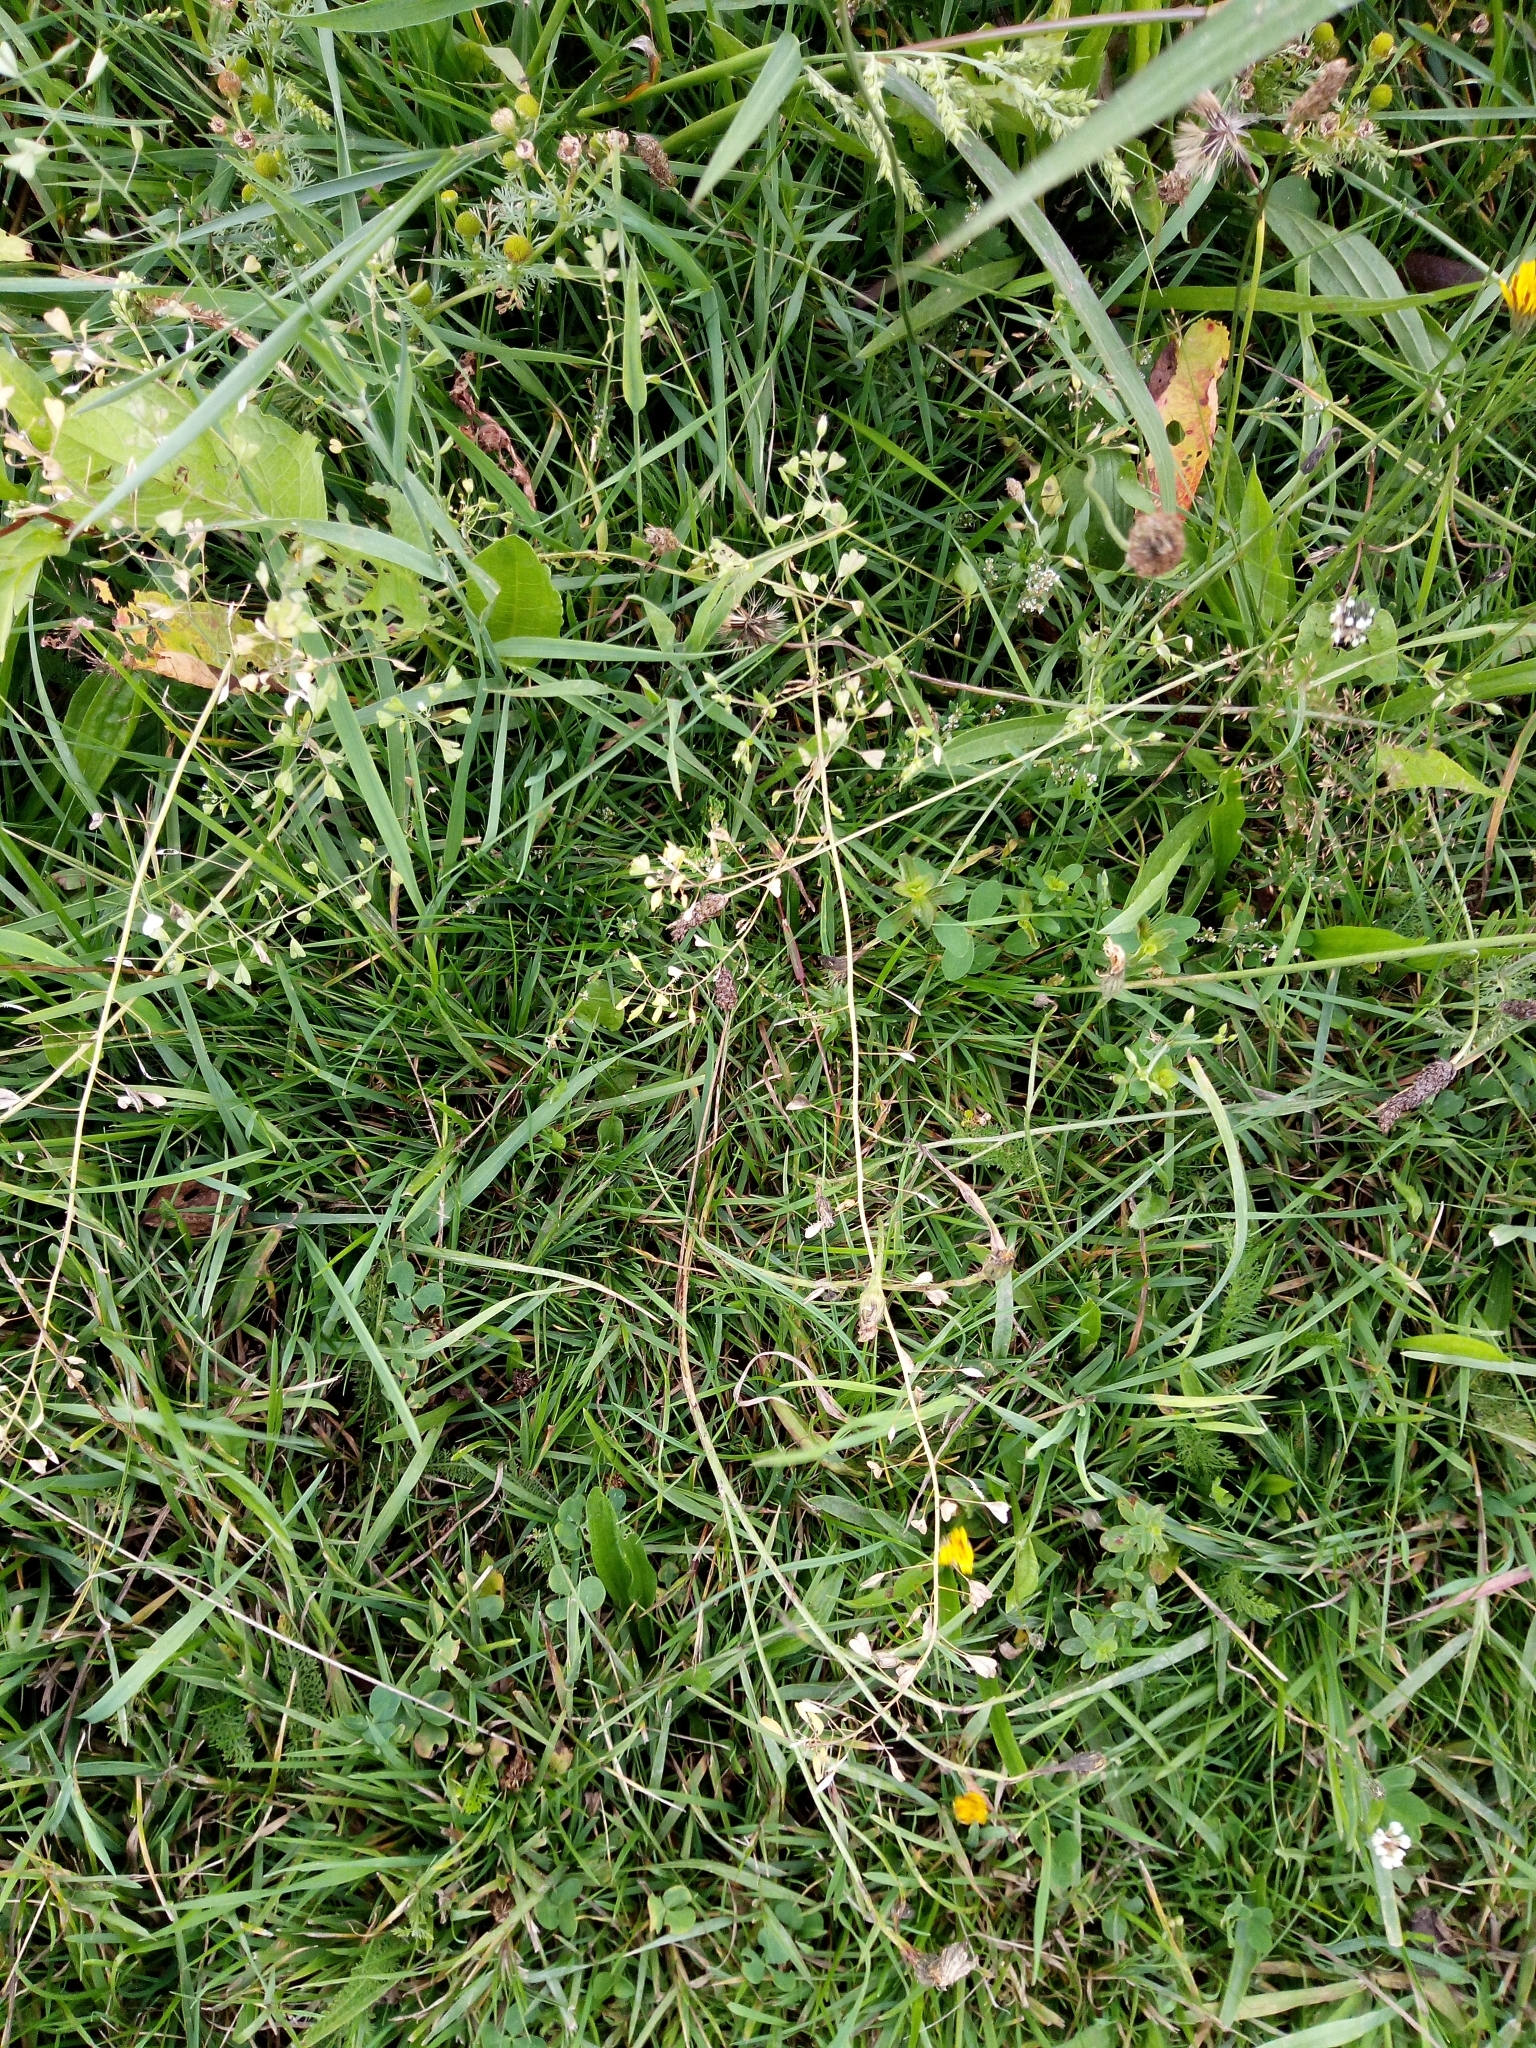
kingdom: Plantae
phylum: Tracheophyta
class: Magnoliopsida
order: Brassicales
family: Brassicaceae
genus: Capsella
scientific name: Capsella bursa-pastoris
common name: Shepherd's purse
